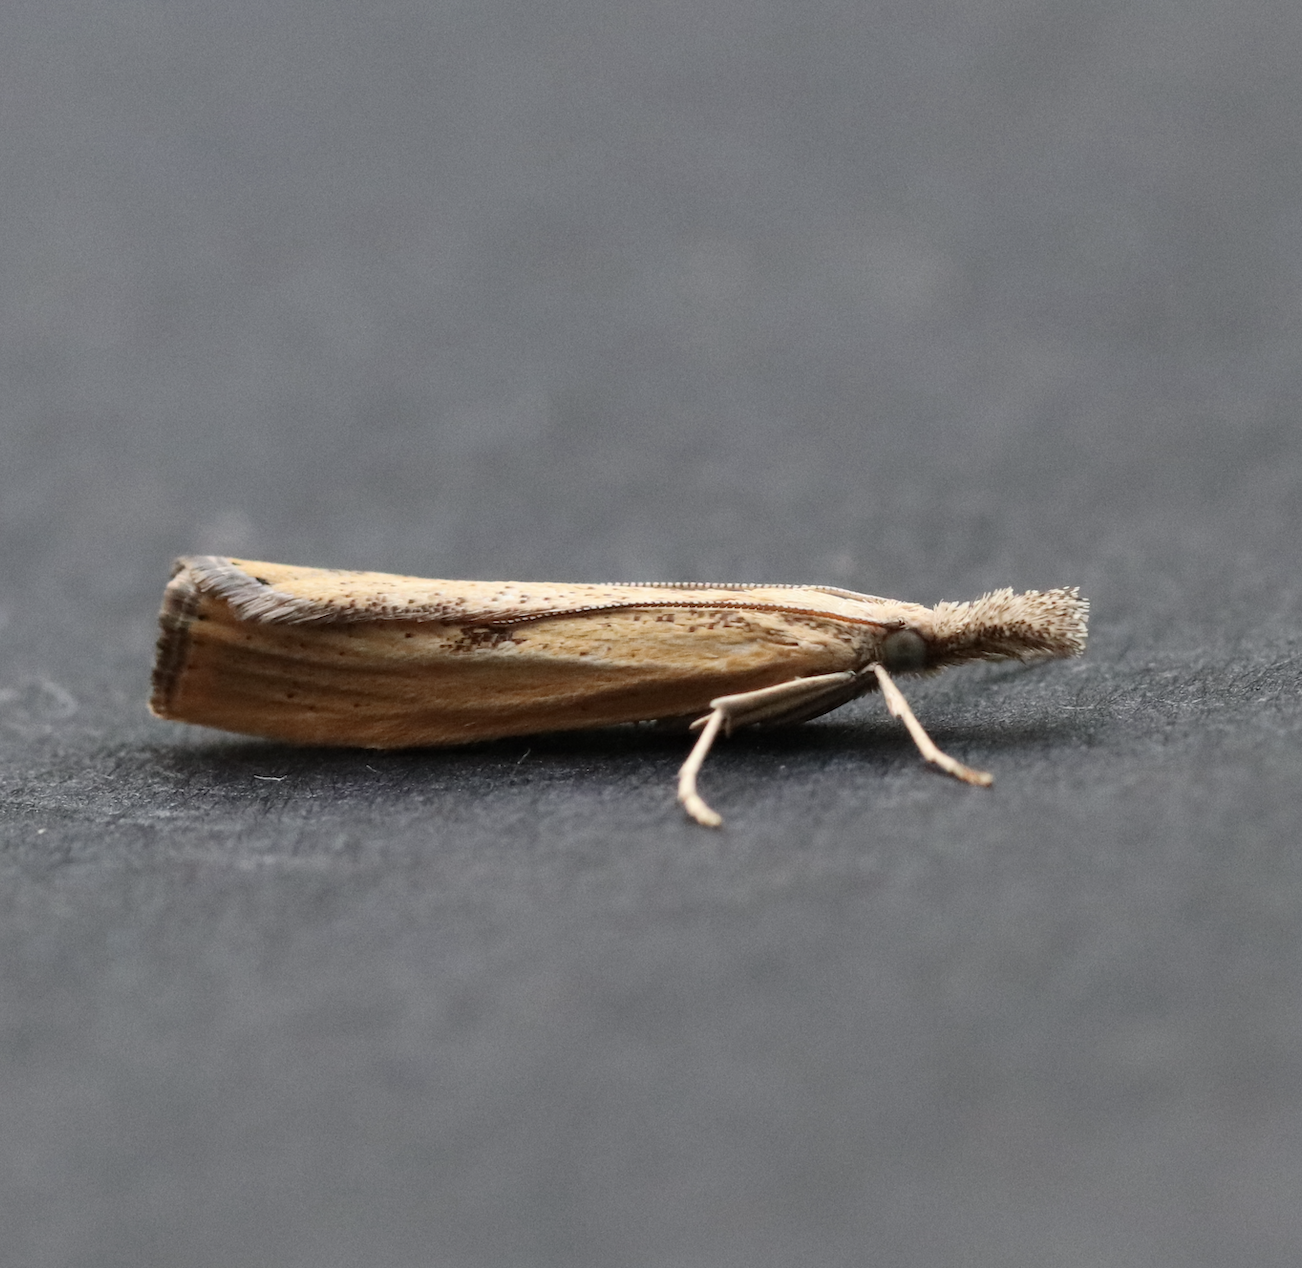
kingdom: Animalia
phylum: Arthropoda
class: Insecta
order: Lepidoptera
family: Crambidae
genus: Agriphila
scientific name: Agriphila inquinatella
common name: Barred grass-veneer
